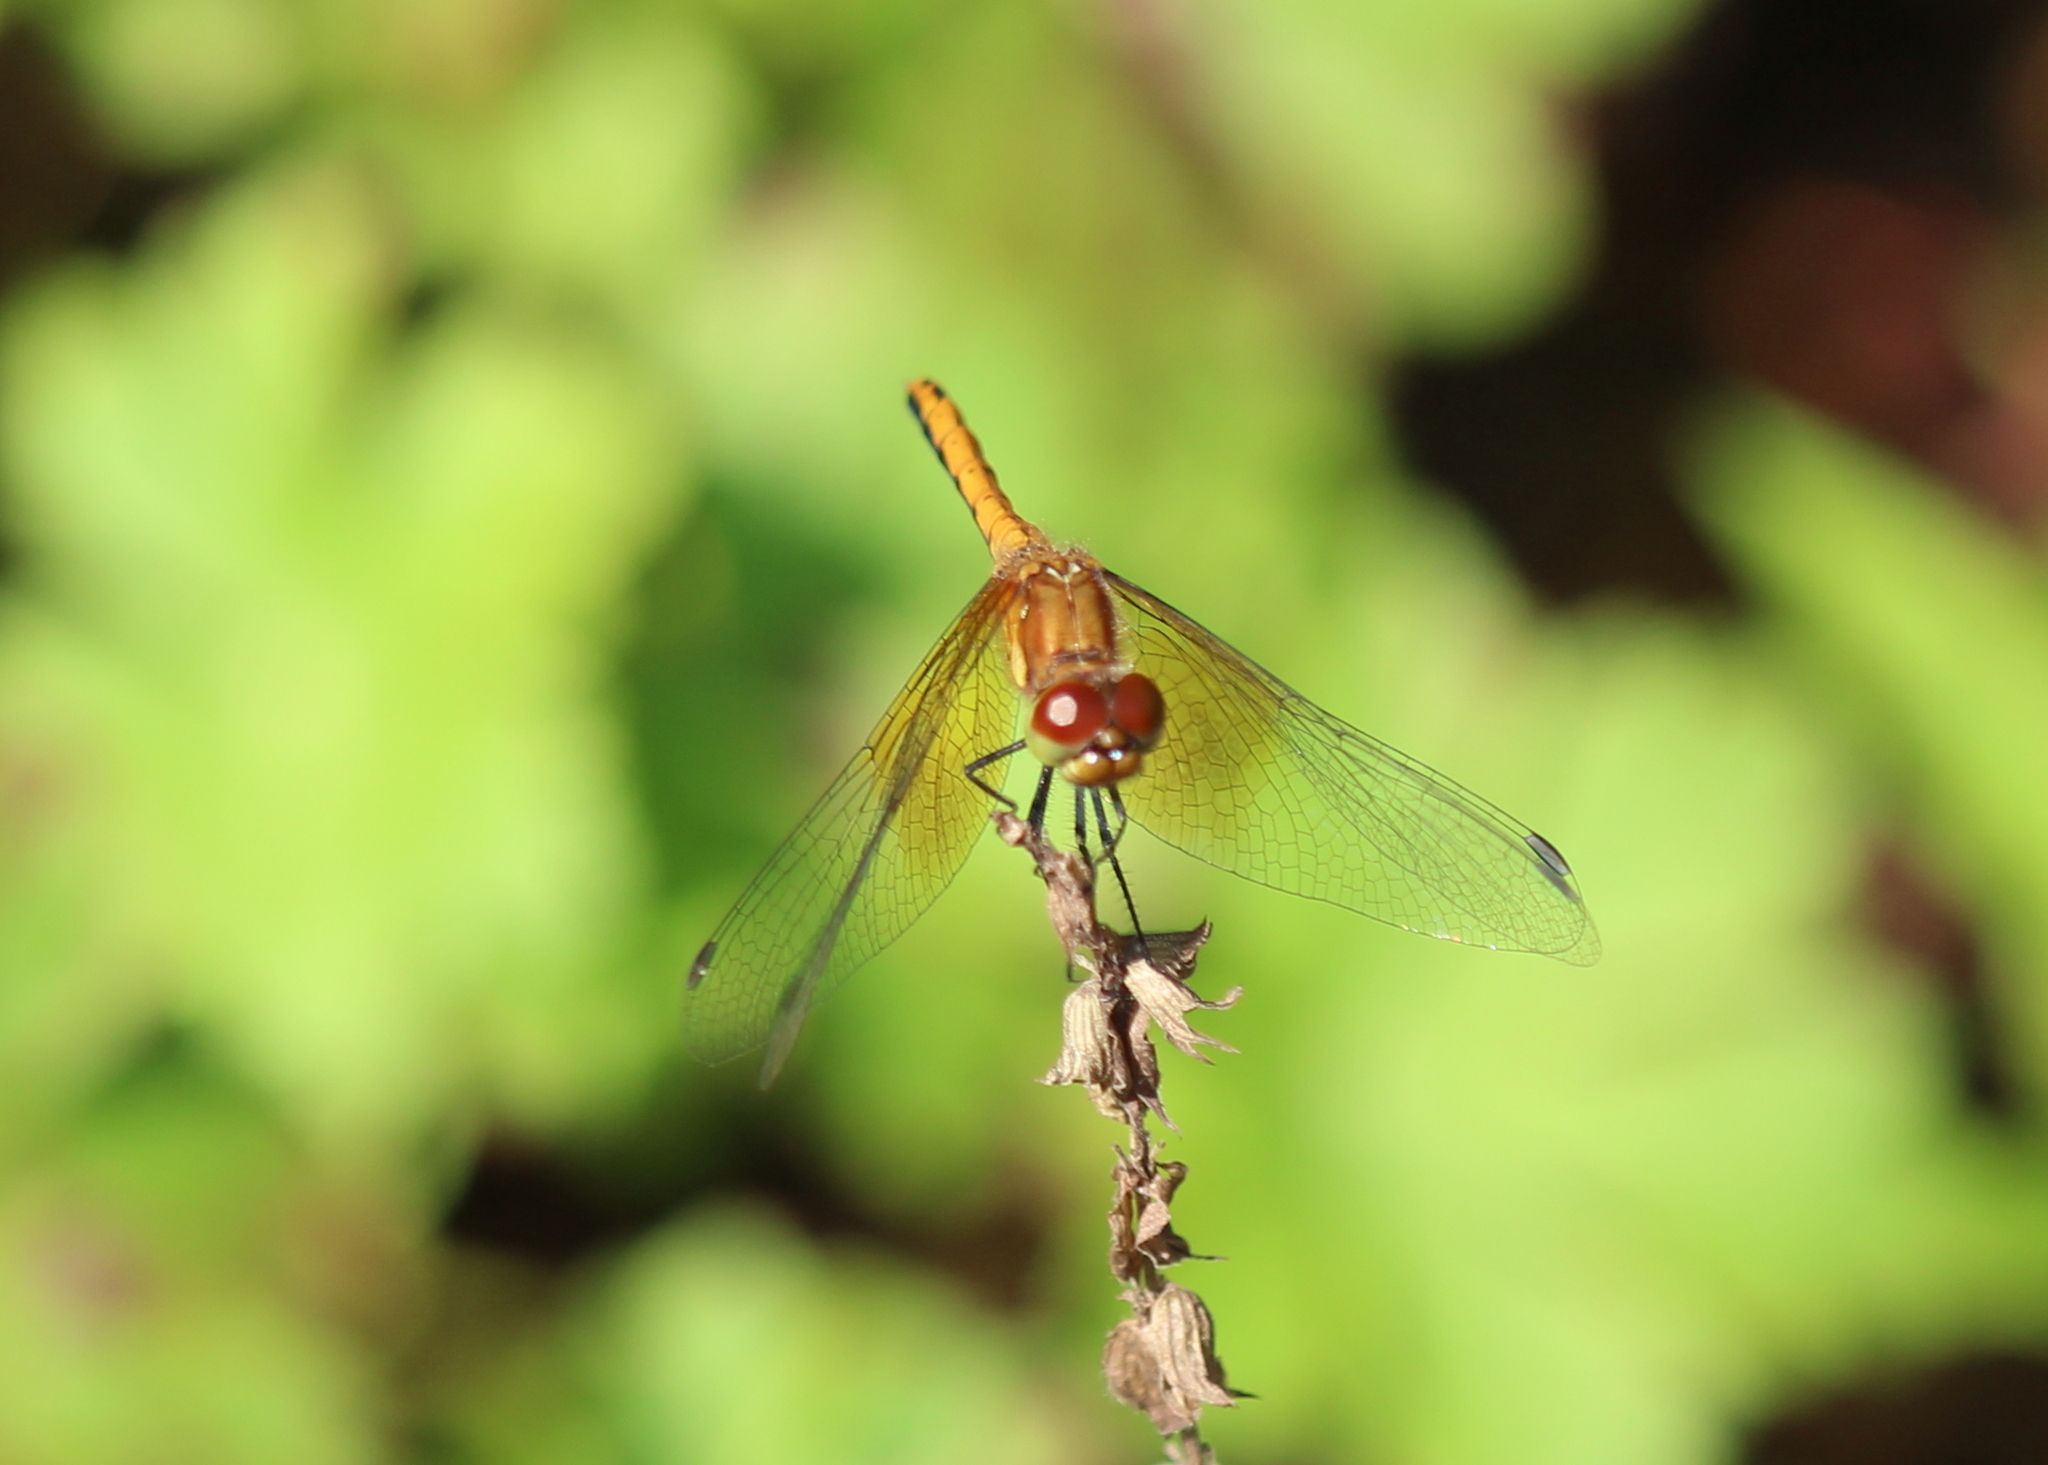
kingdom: Animalia
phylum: Arthropoda
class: Insecta
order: Odonata
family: Libellulidae
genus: Sympetrum
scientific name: Sympetrum semicinctum
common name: Band-winged meadowhawk
